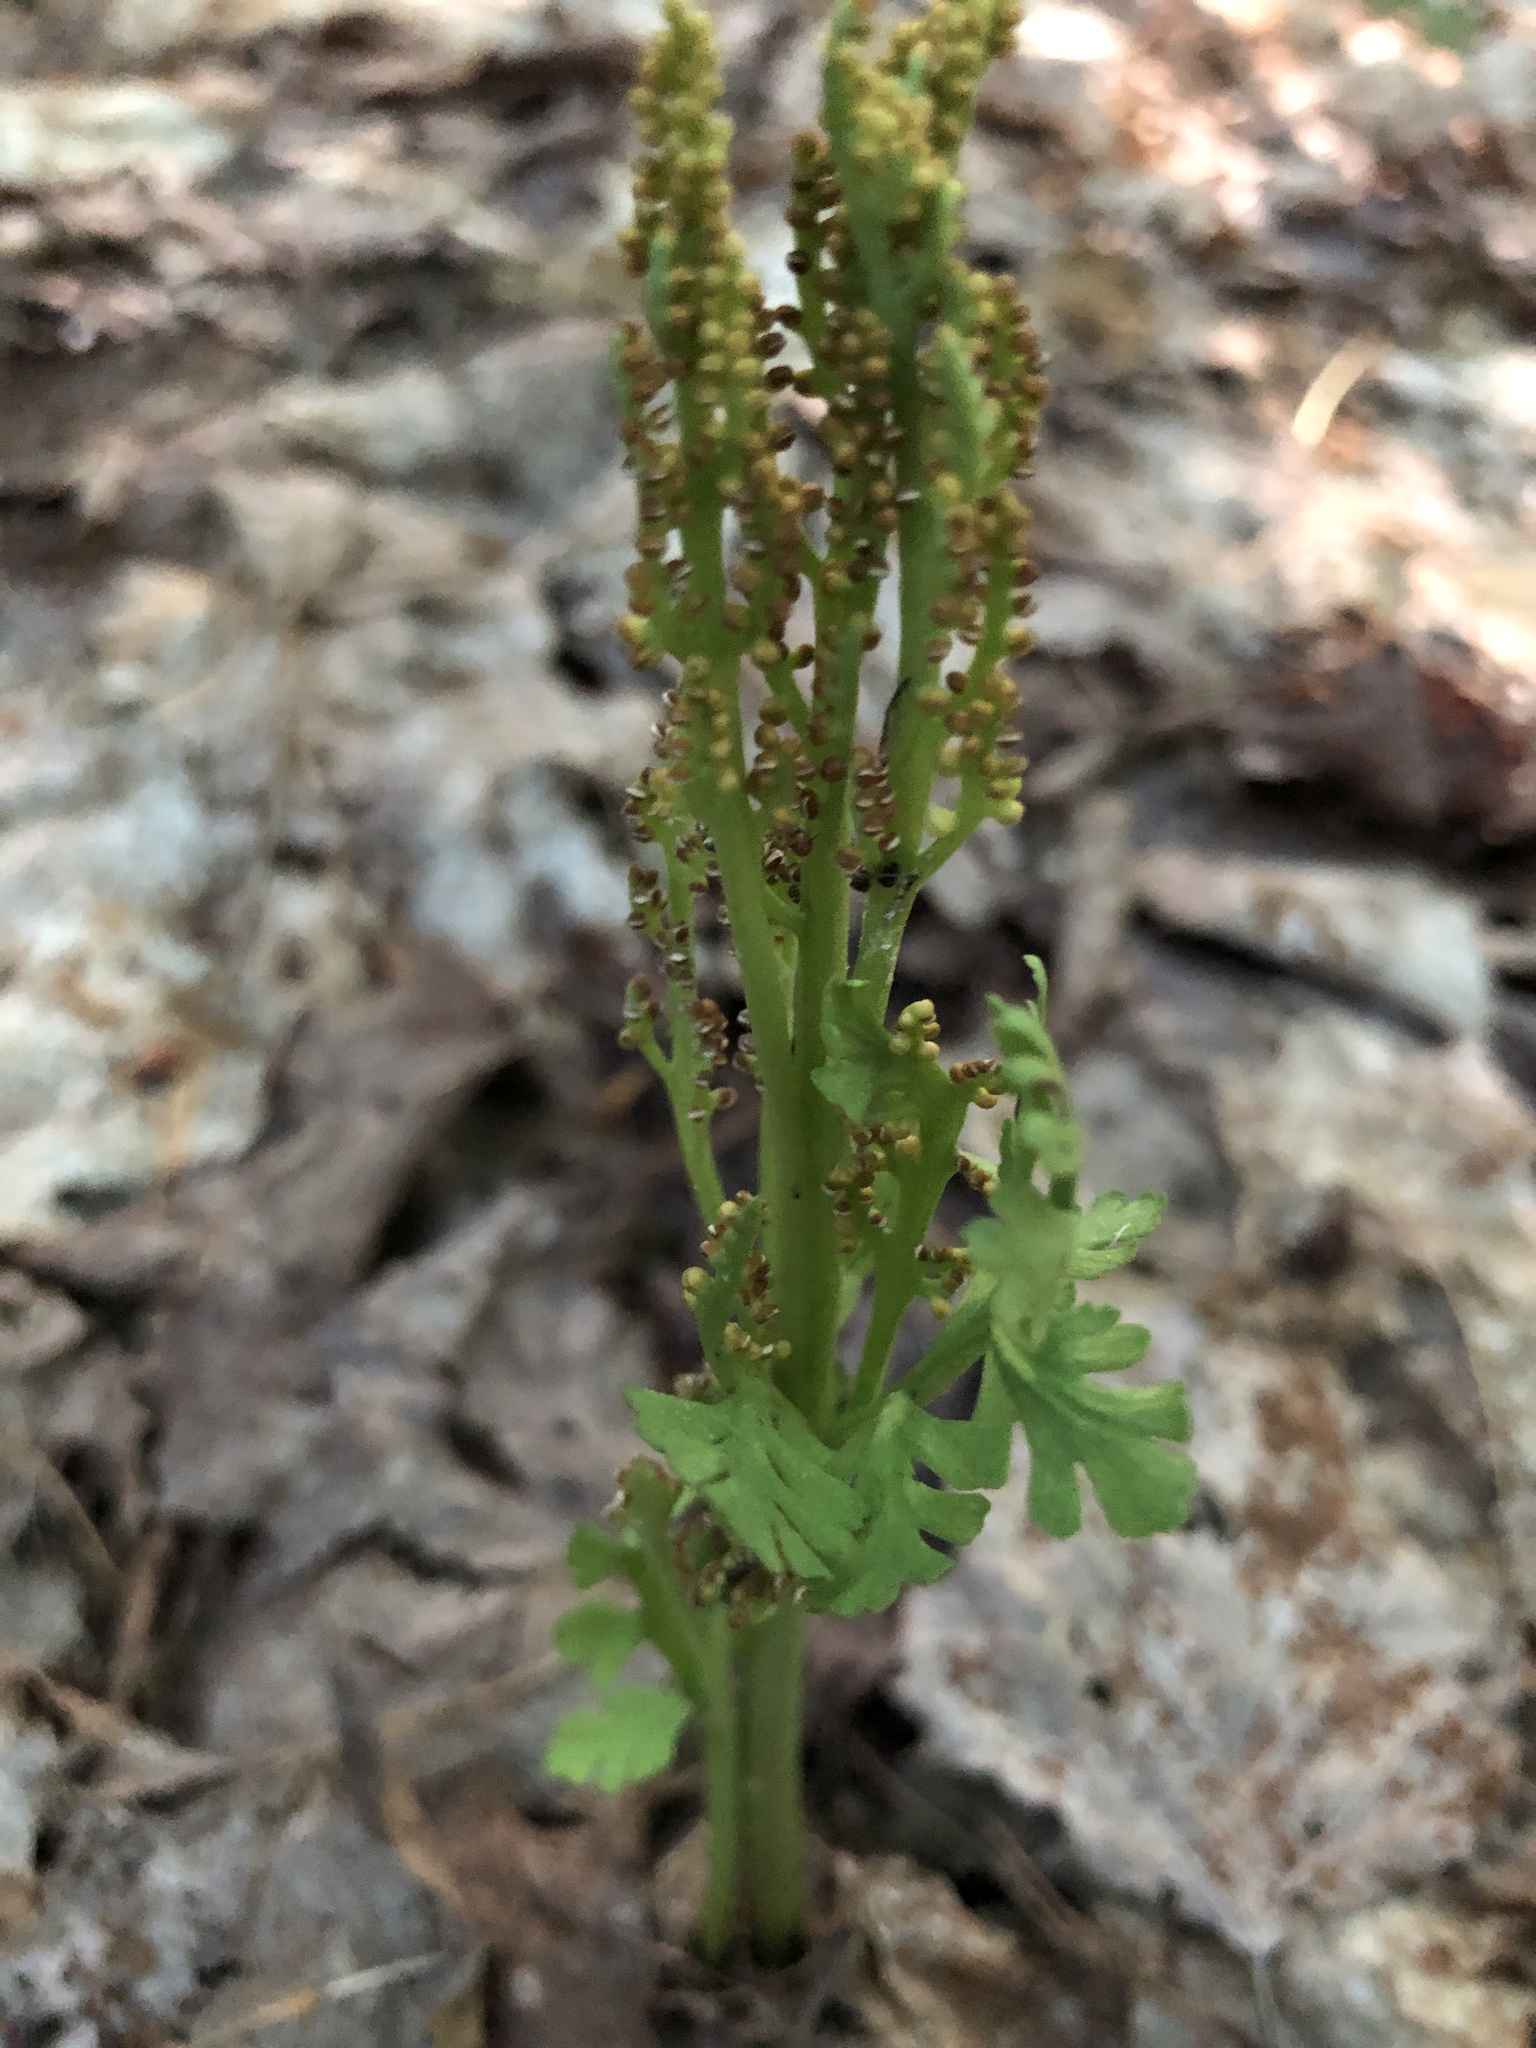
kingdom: Plantae
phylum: Tracheophyta
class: Polypodiopsida
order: Ophioglossales
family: Ophioglossaceae
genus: Botrychium
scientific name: Botrychium matricariifolium
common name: Branched moonwort
